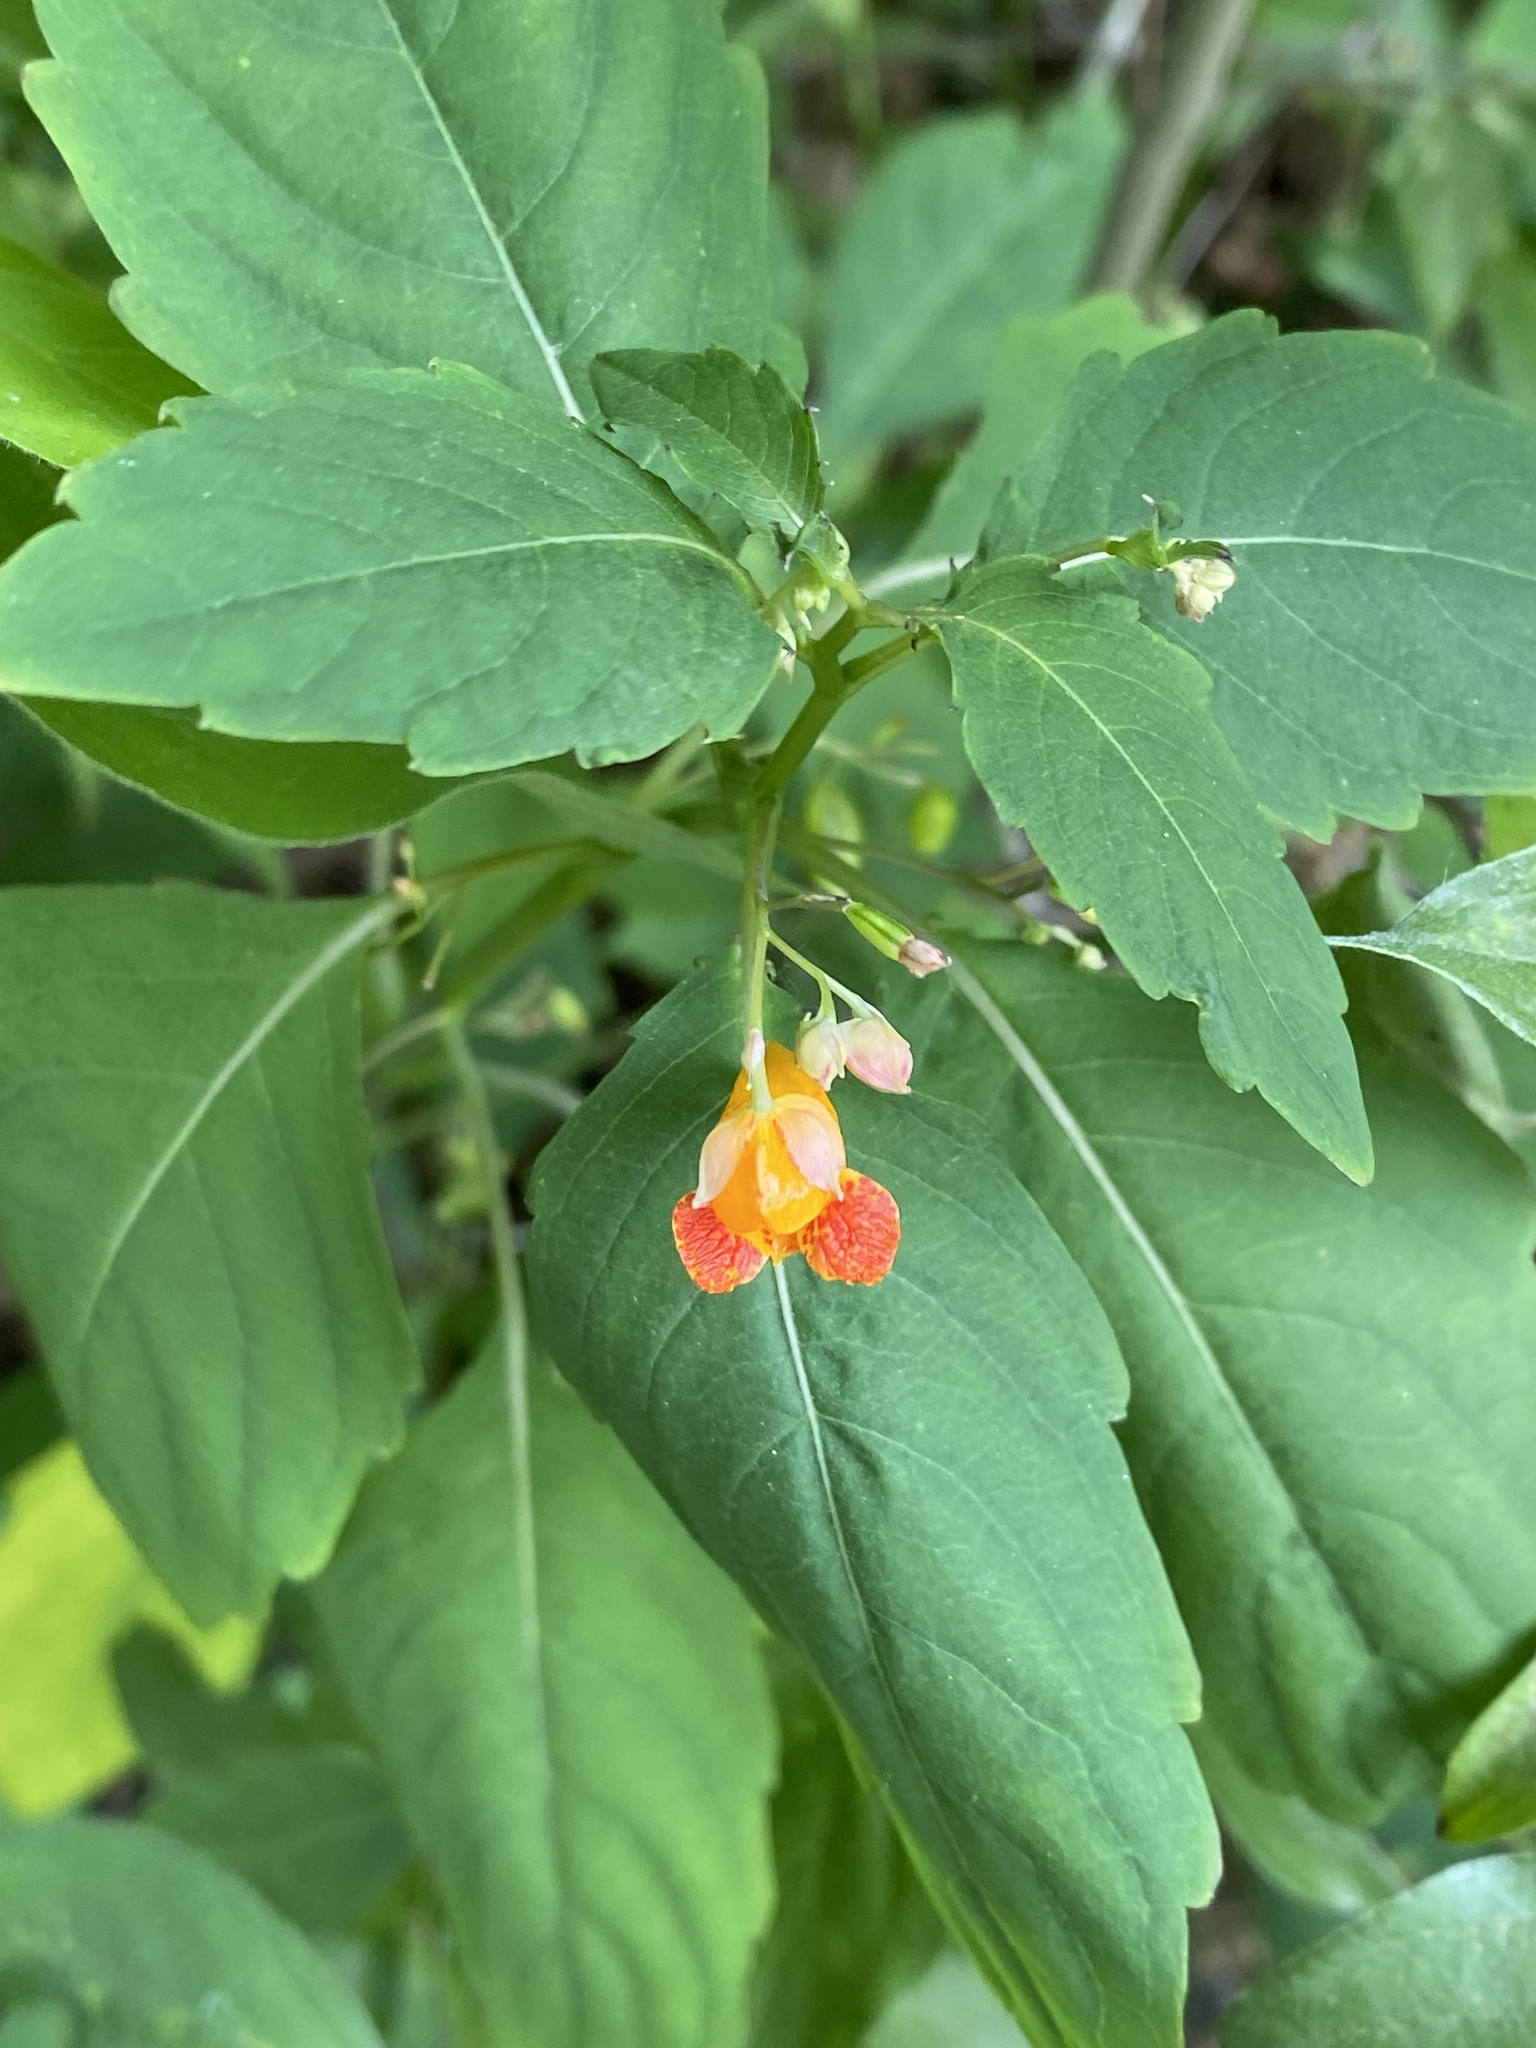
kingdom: Plantae
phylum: Tracheophyta
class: Magnoliopsida
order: Ericales
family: Balsaminaceae
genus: Impatiens
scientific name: Impatiens capensis
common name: Orange balsam
